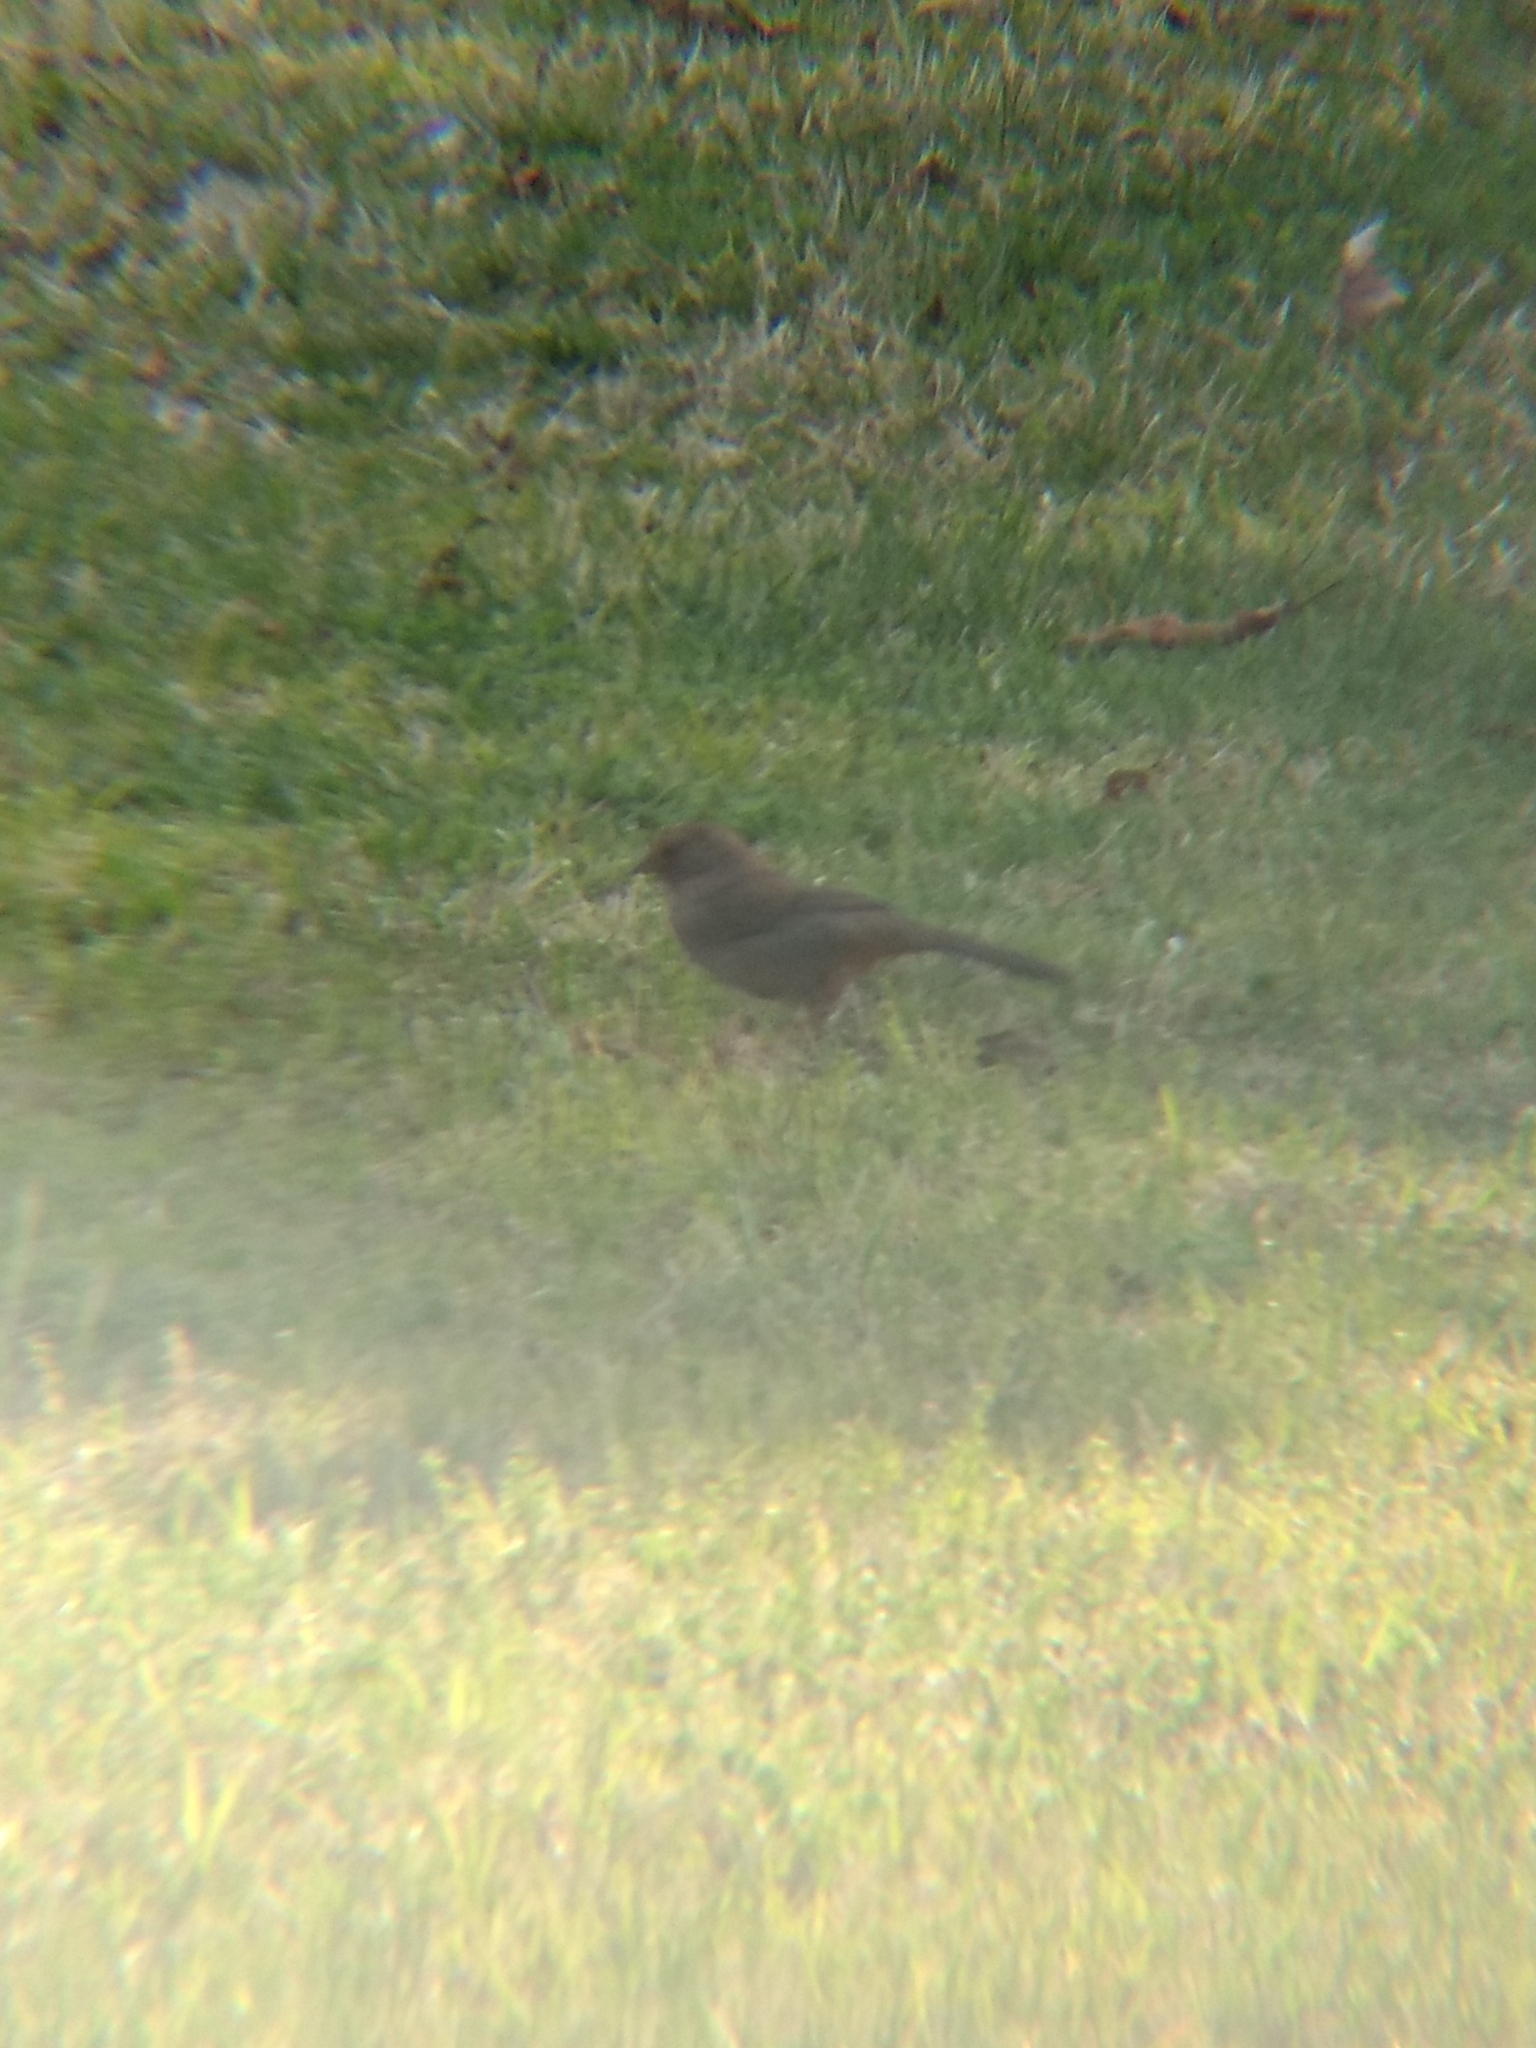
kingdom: Animalia
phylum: Chordata
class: Aves
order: Passeriformes
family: Passerellidae
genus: Melozone
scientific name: Melozone crissalis
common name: California towhee
